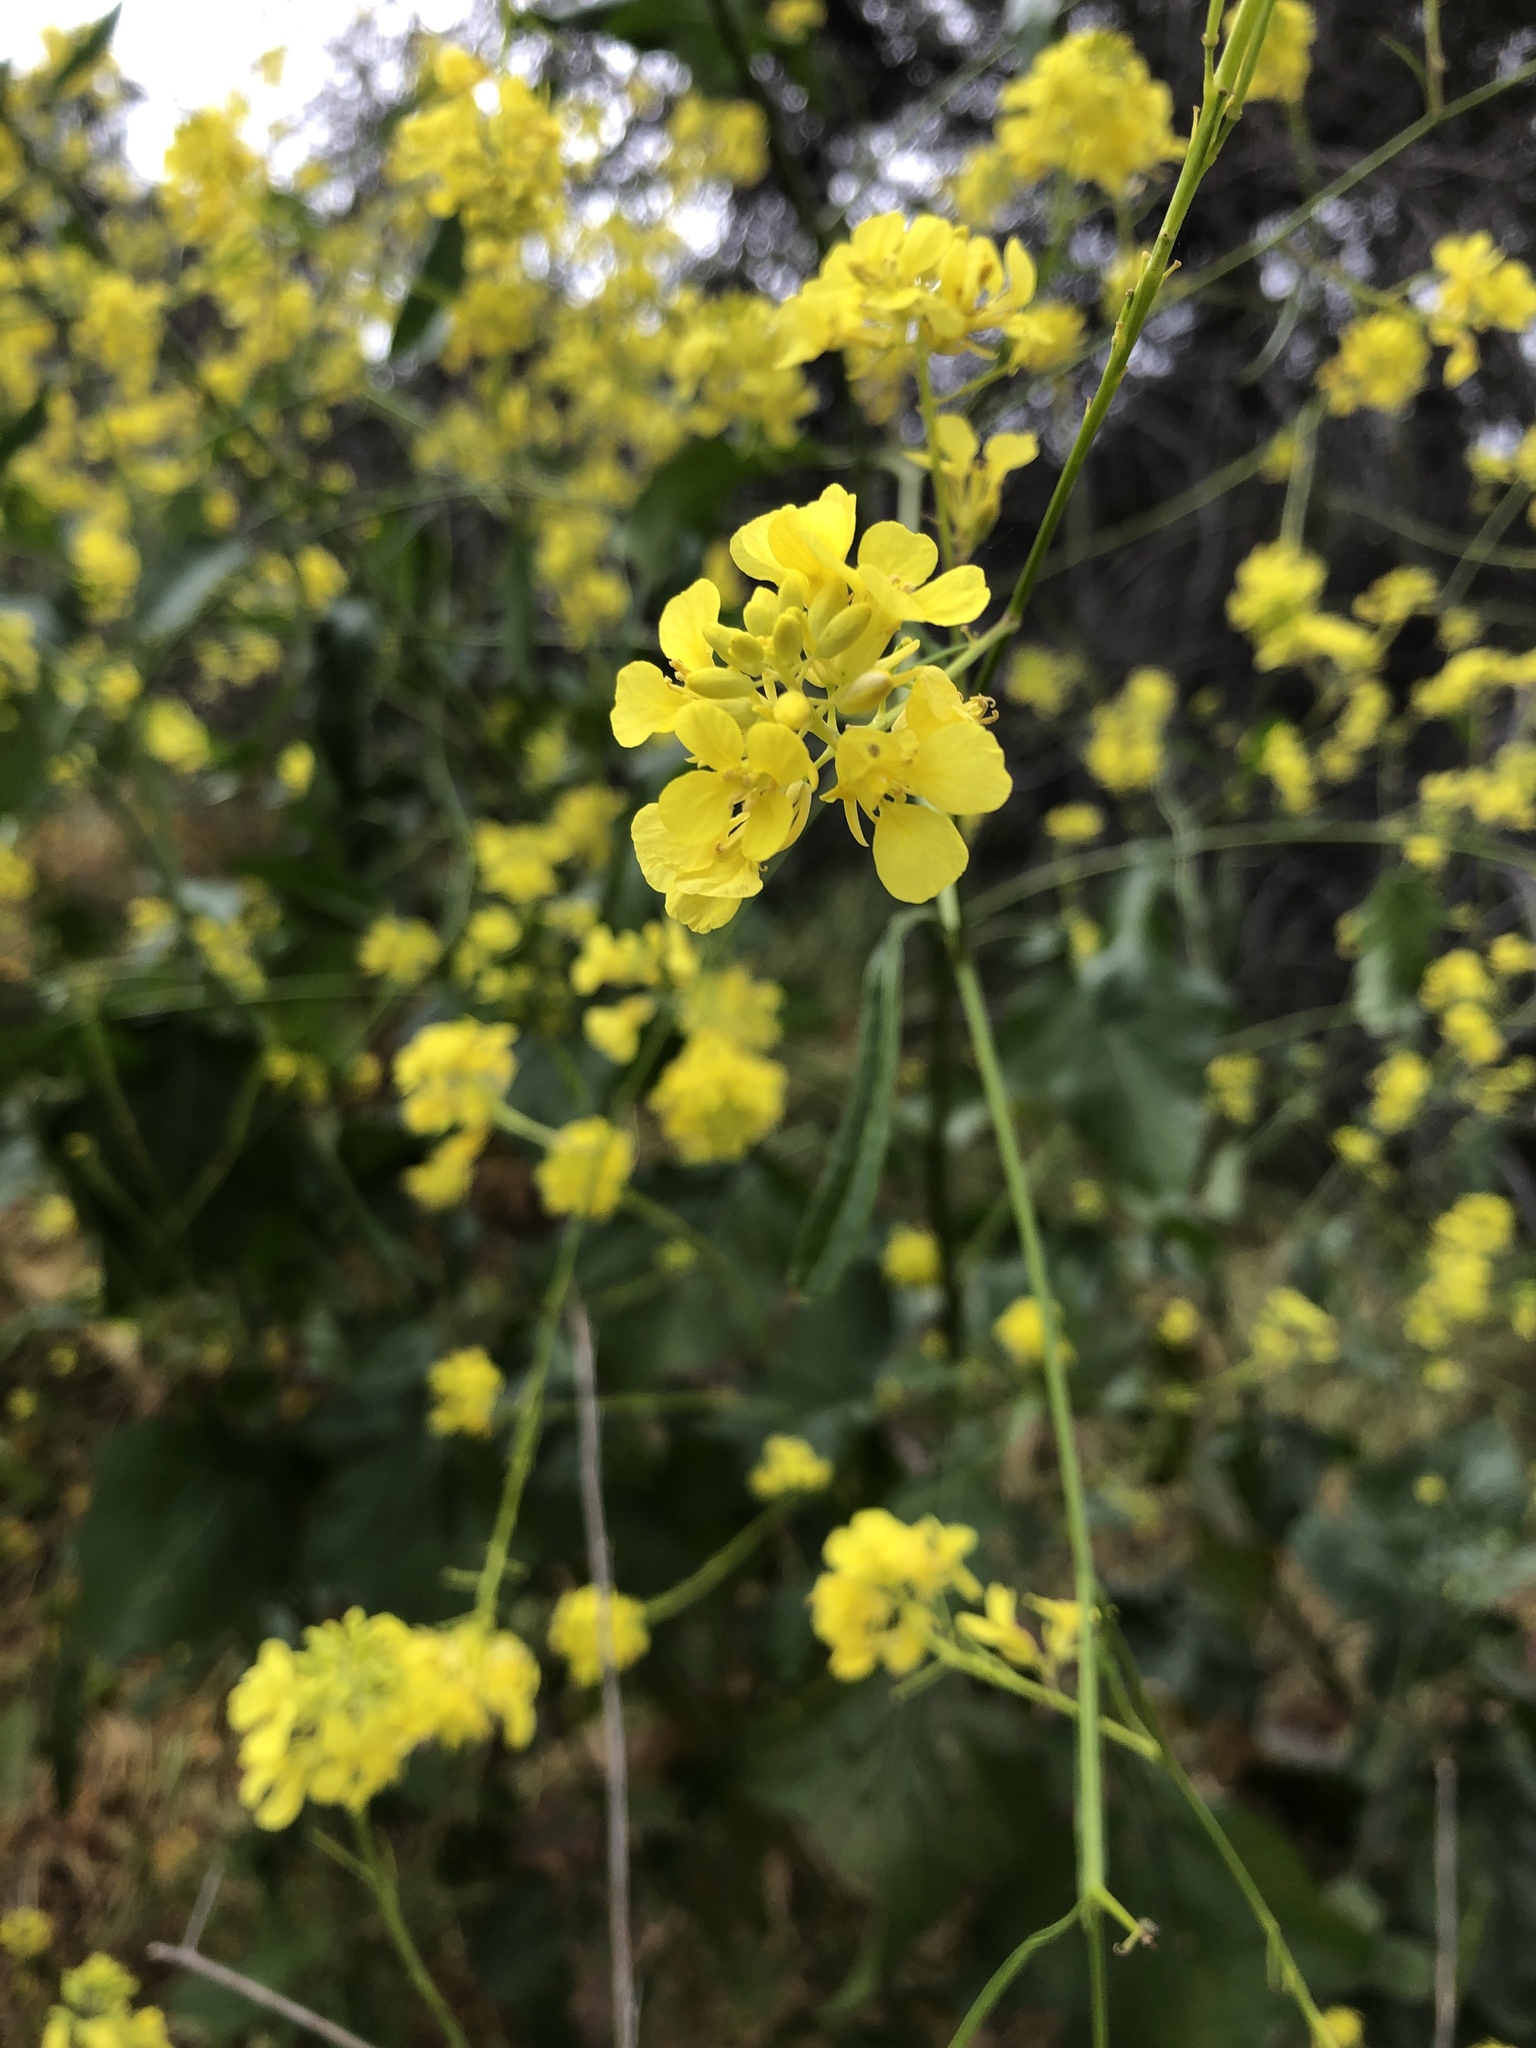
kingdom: Plantae
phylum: Tracheophyta
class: Magnoliopsida
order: Brassicales
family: Brassicaceae
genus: Brassica
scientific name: Brassica nigra
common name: Black mustard
